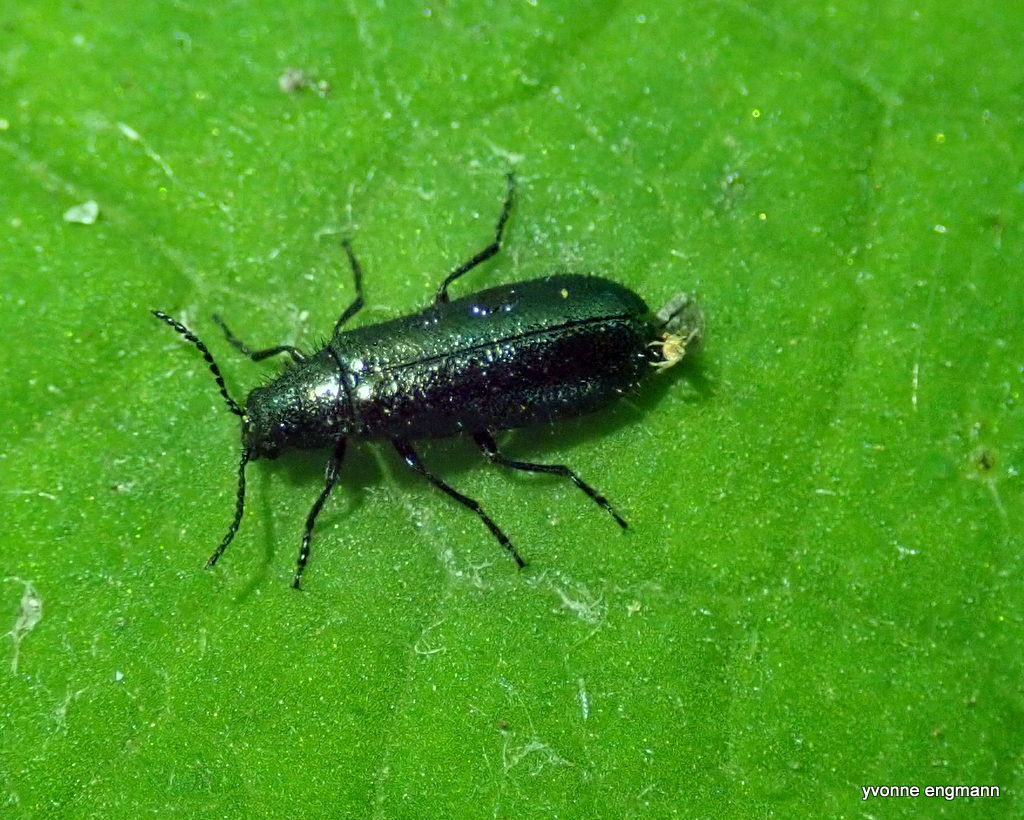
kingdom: Animalia
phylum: Arthropoda
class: Insecta
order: Coleoptera
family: Melyridae
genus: Dasytes
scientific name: Dasytes caeruleus
